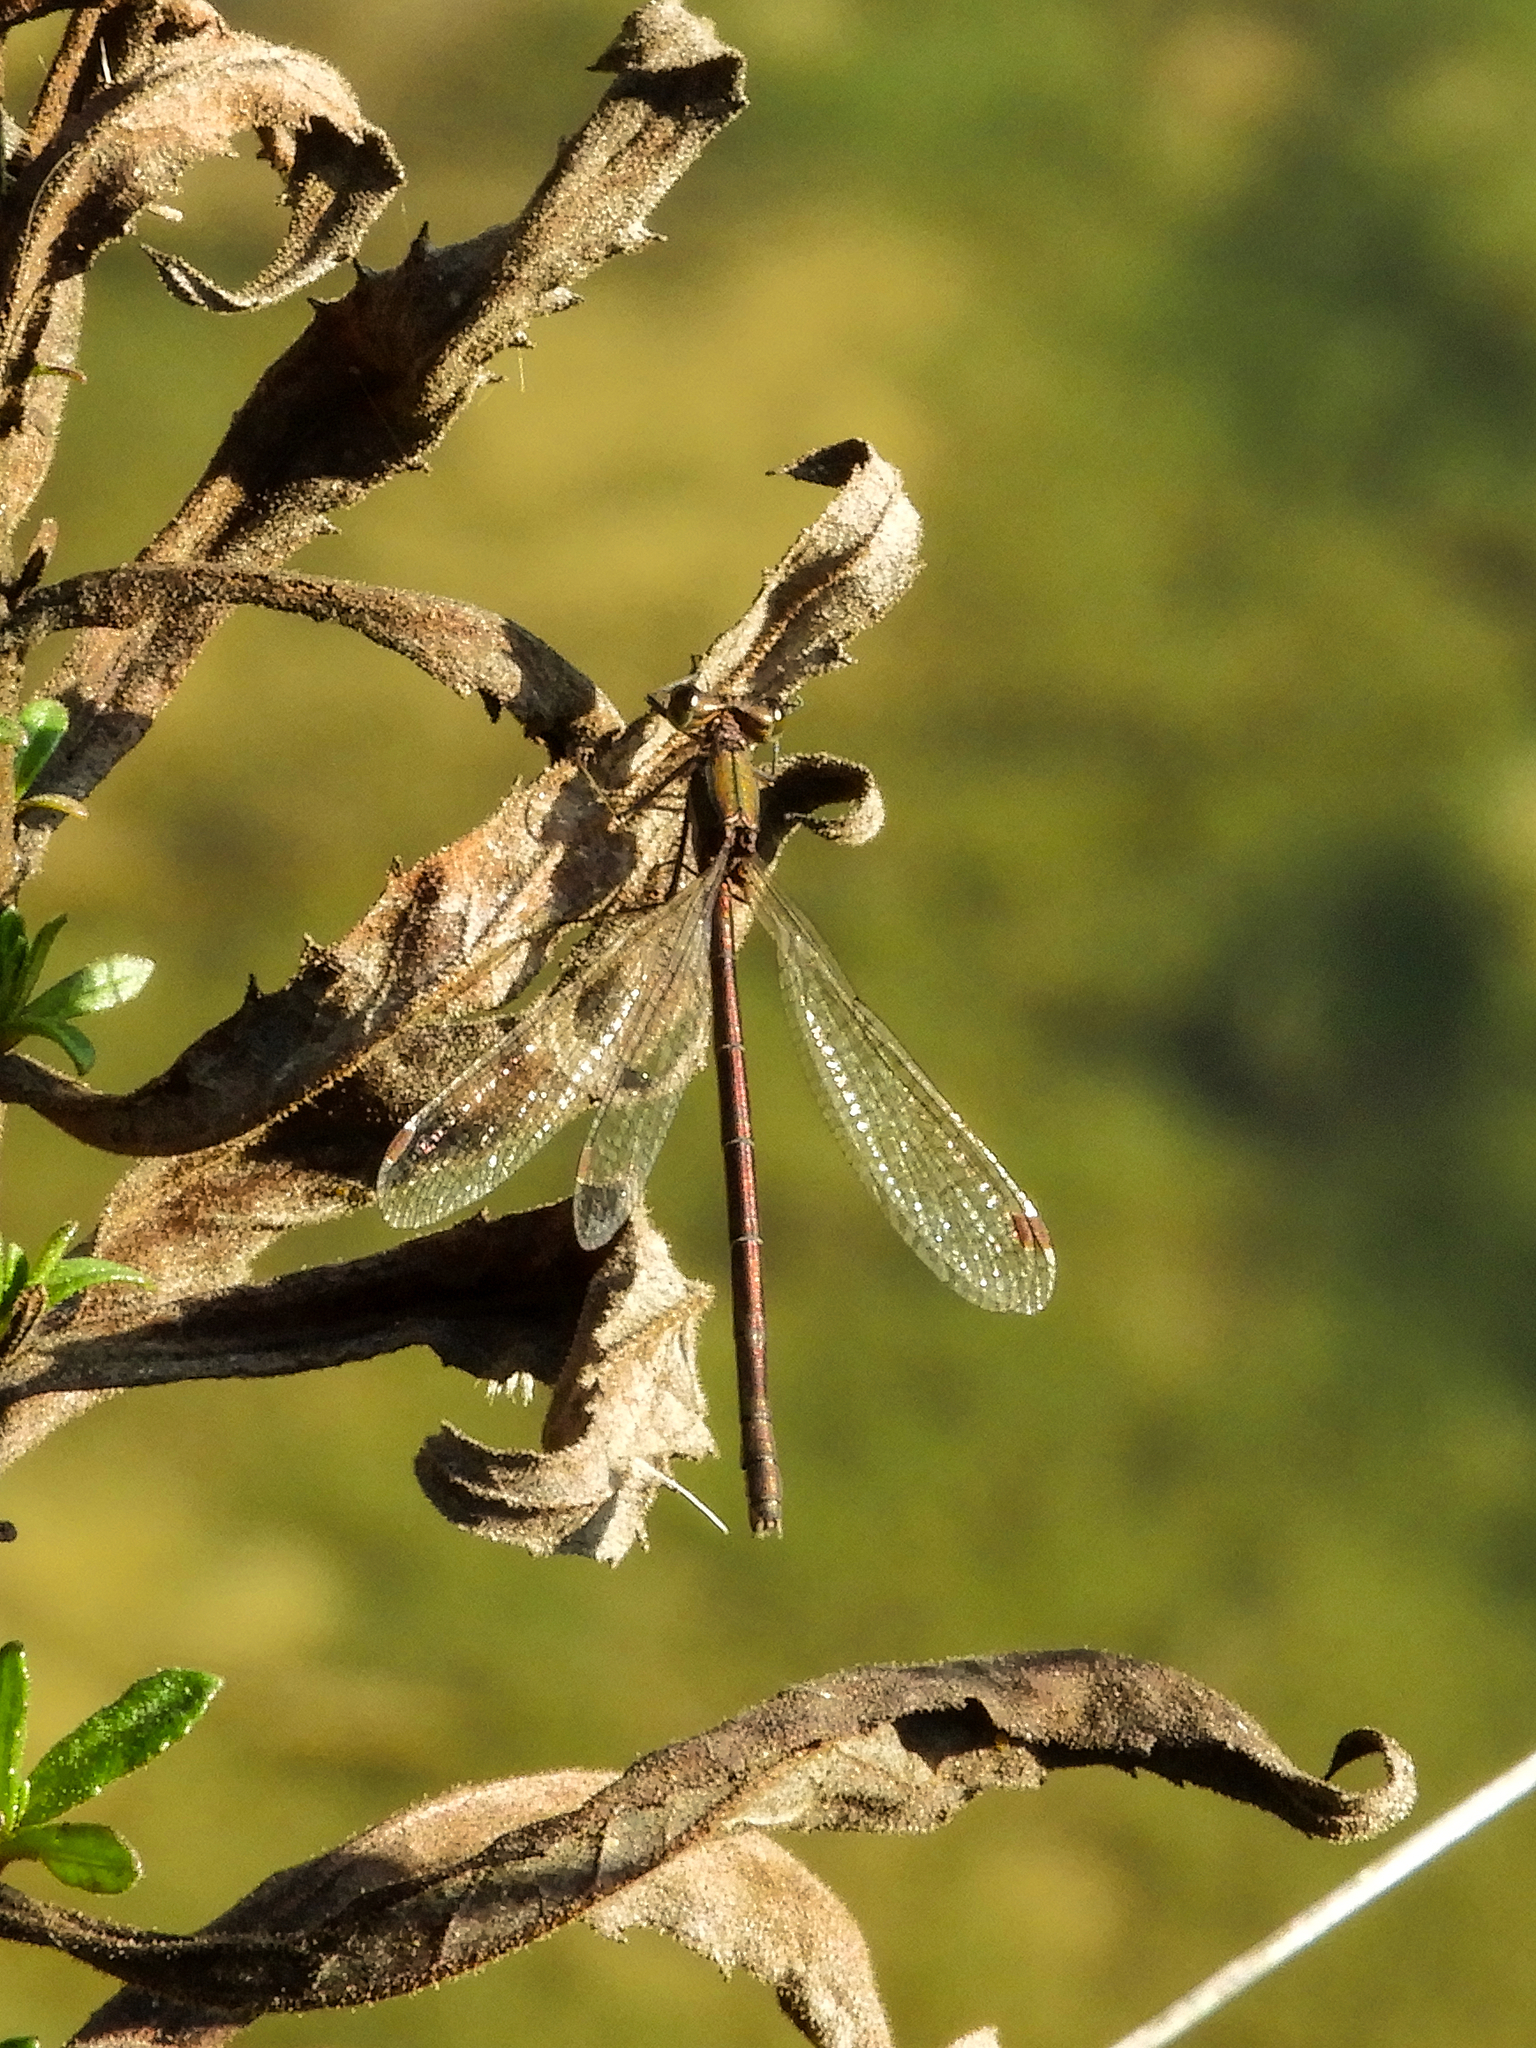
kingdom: Animalia
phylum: Arthropoda
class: Insecta
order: Odonata
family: Lestidae
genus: Lestes
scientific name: Lestes virens
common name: Small emerald spreadwing
